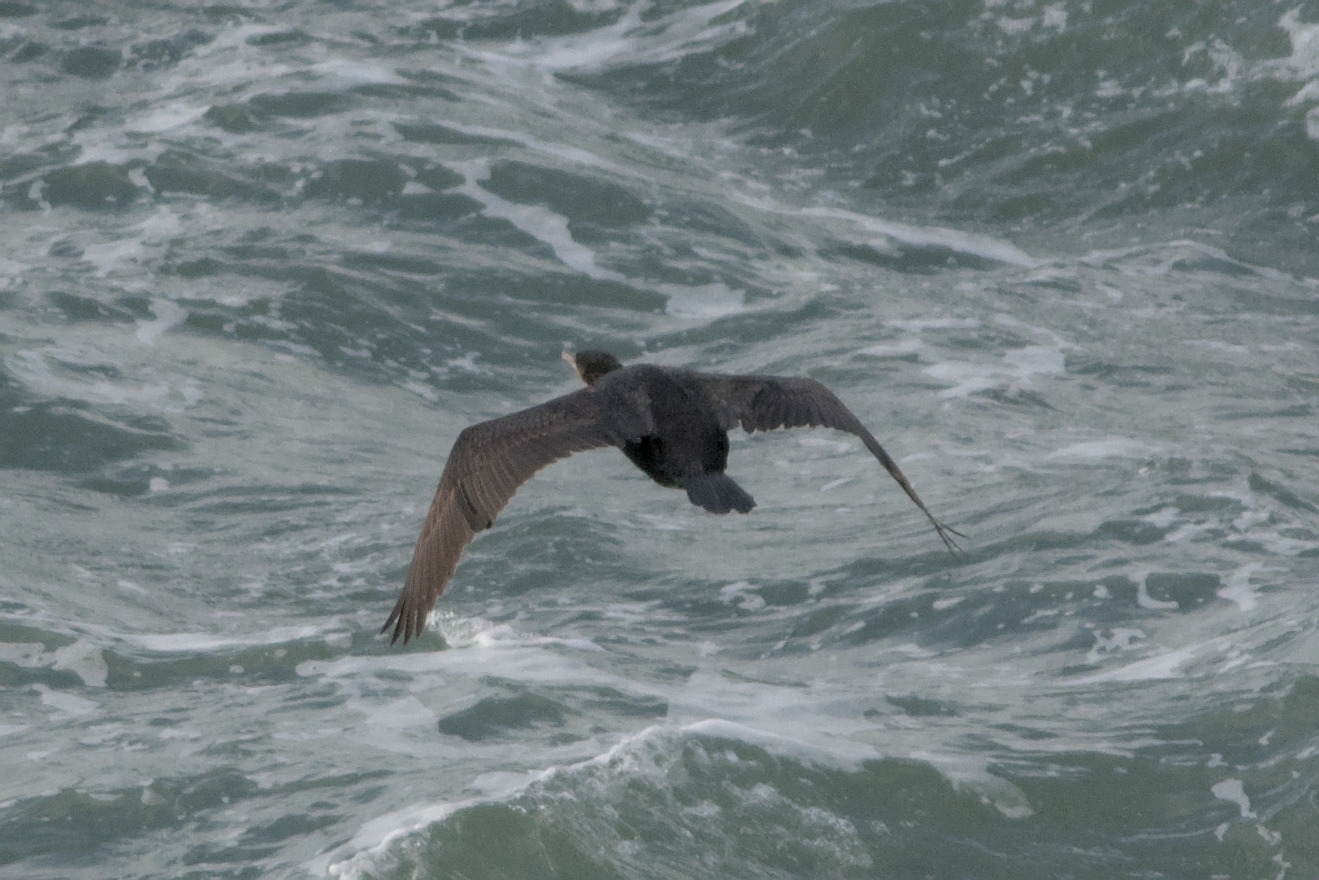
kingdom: Animalia
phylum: Chordata
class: Aves
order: Suliformes
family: Phalacrocoracidae
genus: Phalacrocorax
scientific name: Phalacrocorax aristotelis
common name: European shag
